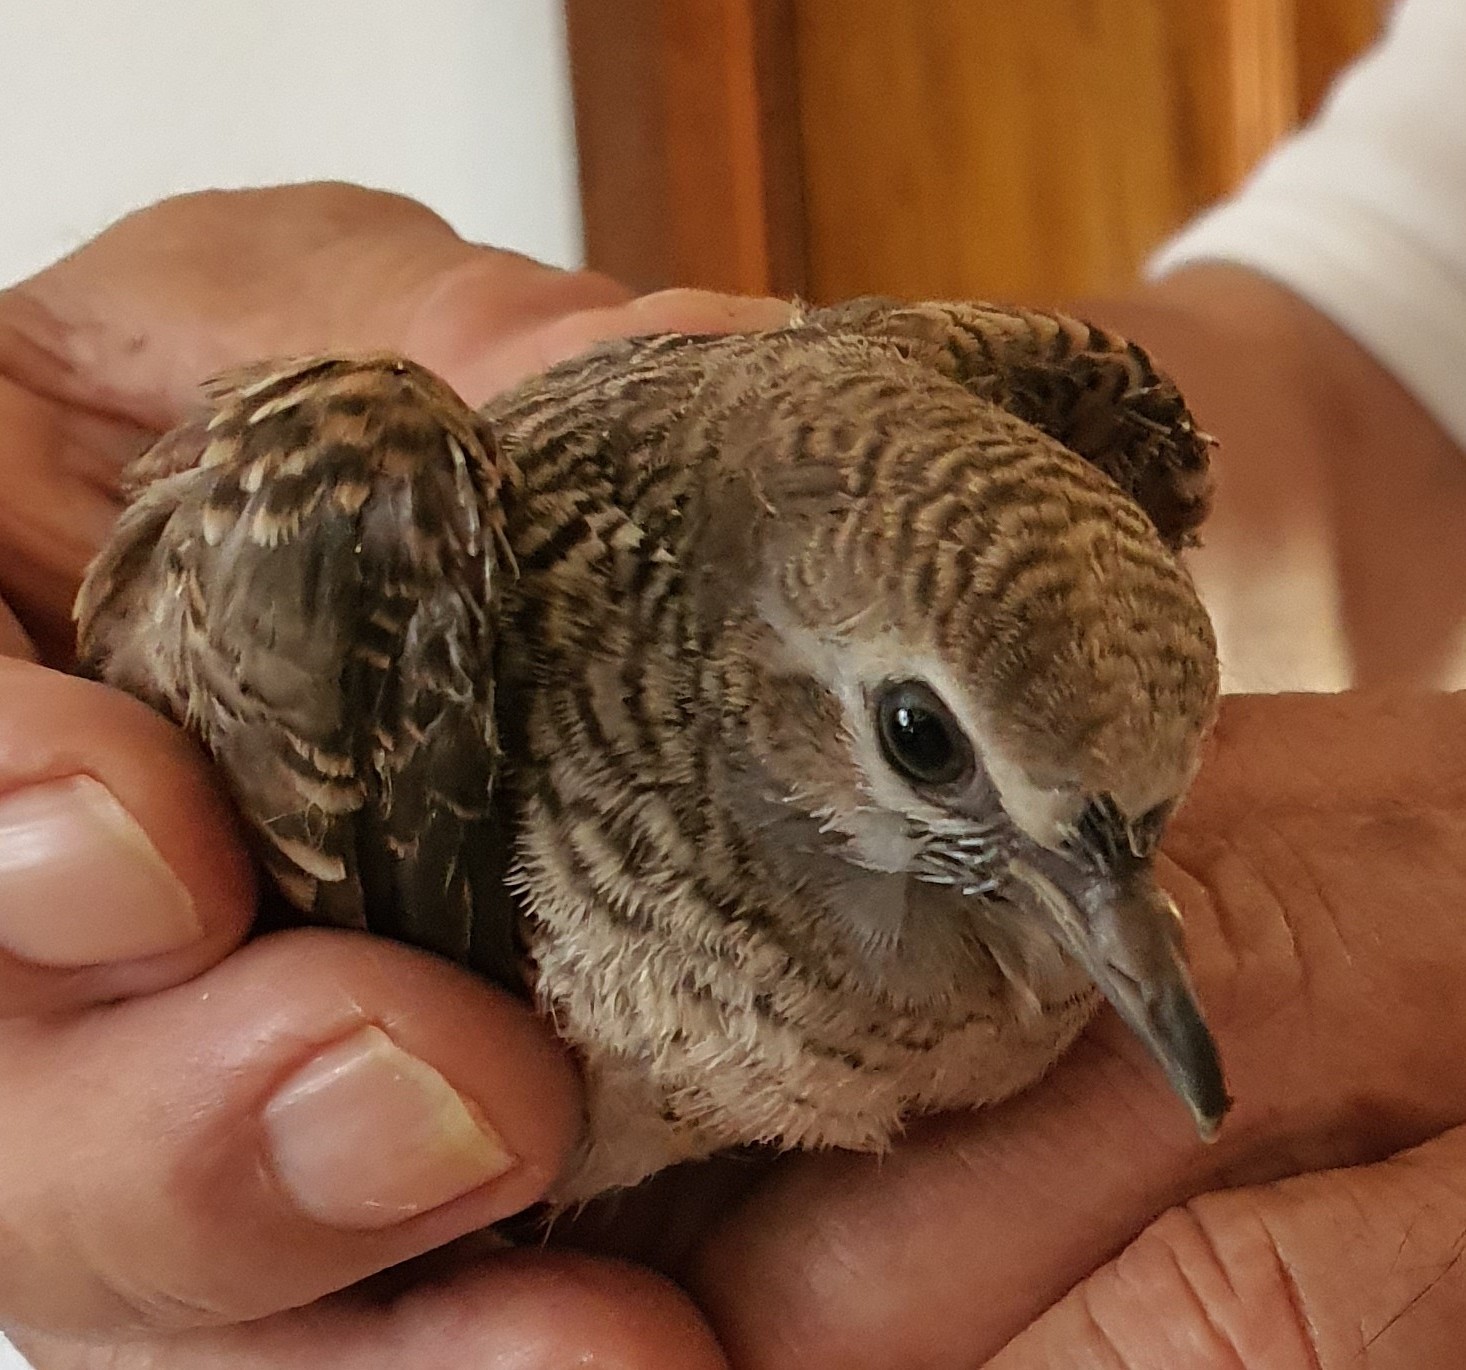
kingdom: Animalia
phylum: Chordata
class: Aves
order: Columbiformes
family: Columbidae
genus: Geopelia
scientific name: Geopelia striata
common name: Zebra dove
